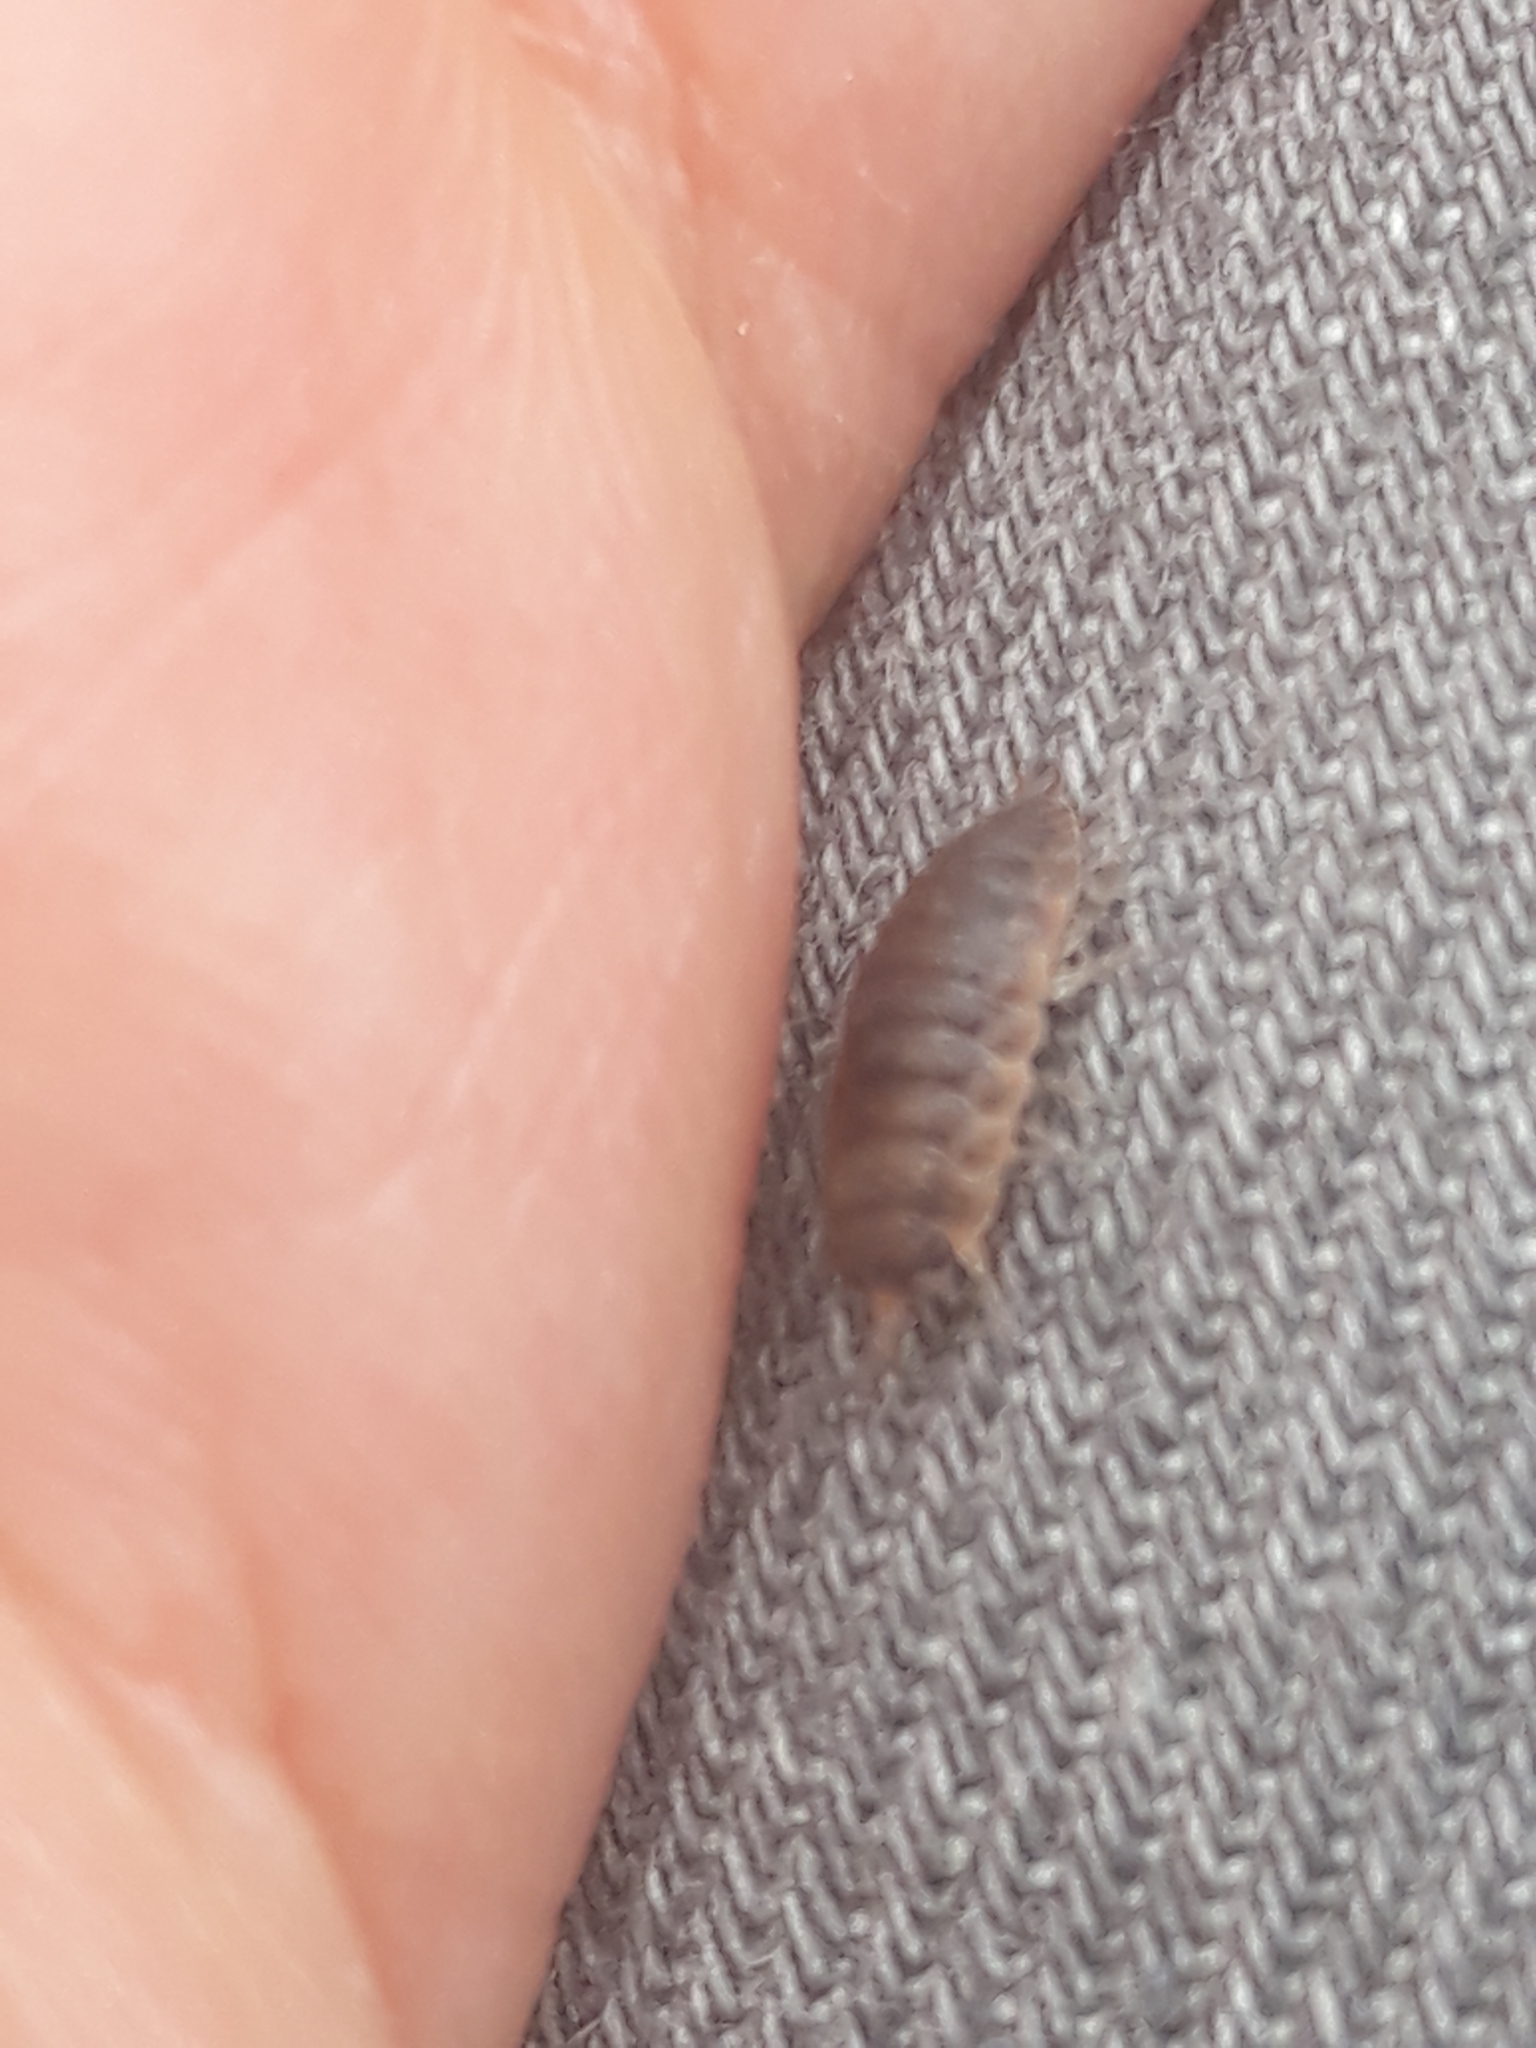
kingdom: Animalia
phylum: Arthropoda
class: Malacostraca
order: Isopoda
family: Porcellionidae
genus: Porcellio
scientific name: Porcellio scaber
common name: Common rough woodlouse
